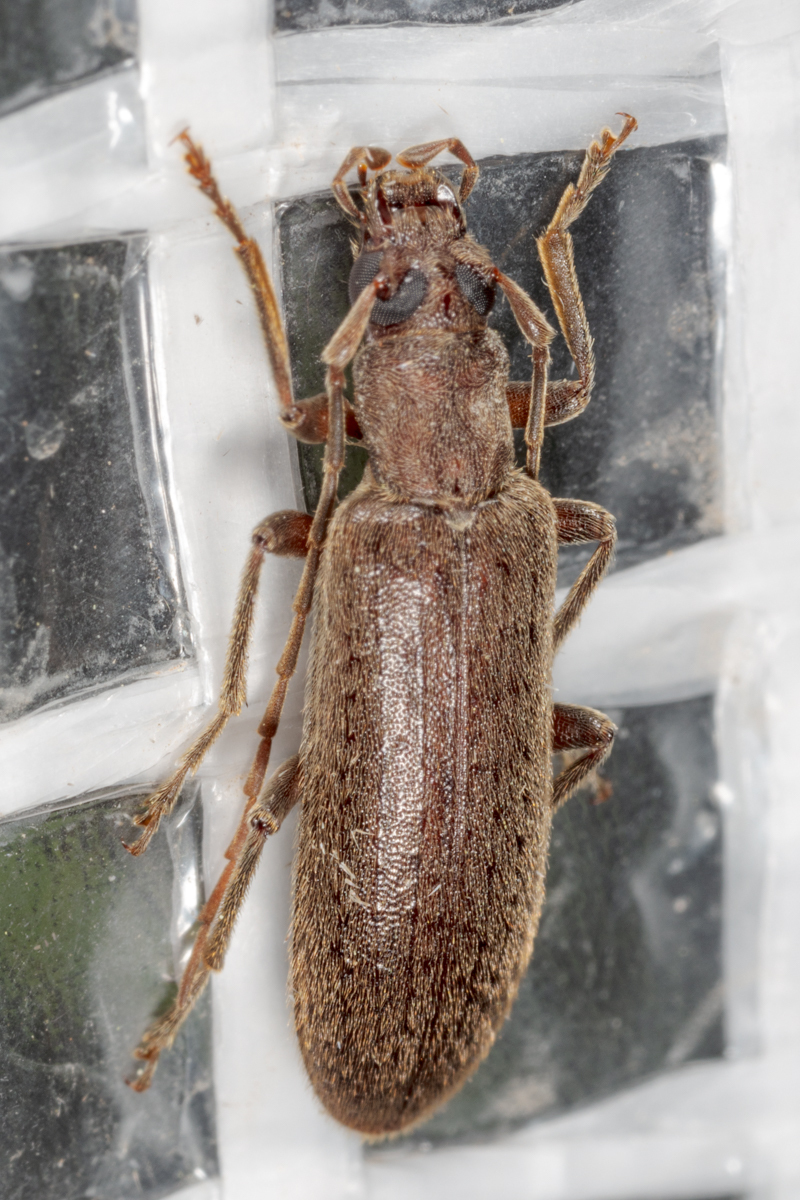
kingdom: Animalia
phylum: Arthropoda
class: Insecta
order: Coleoptera
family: Oedemeridae
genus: Sparedrus
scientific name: Sparedrus aspersus
